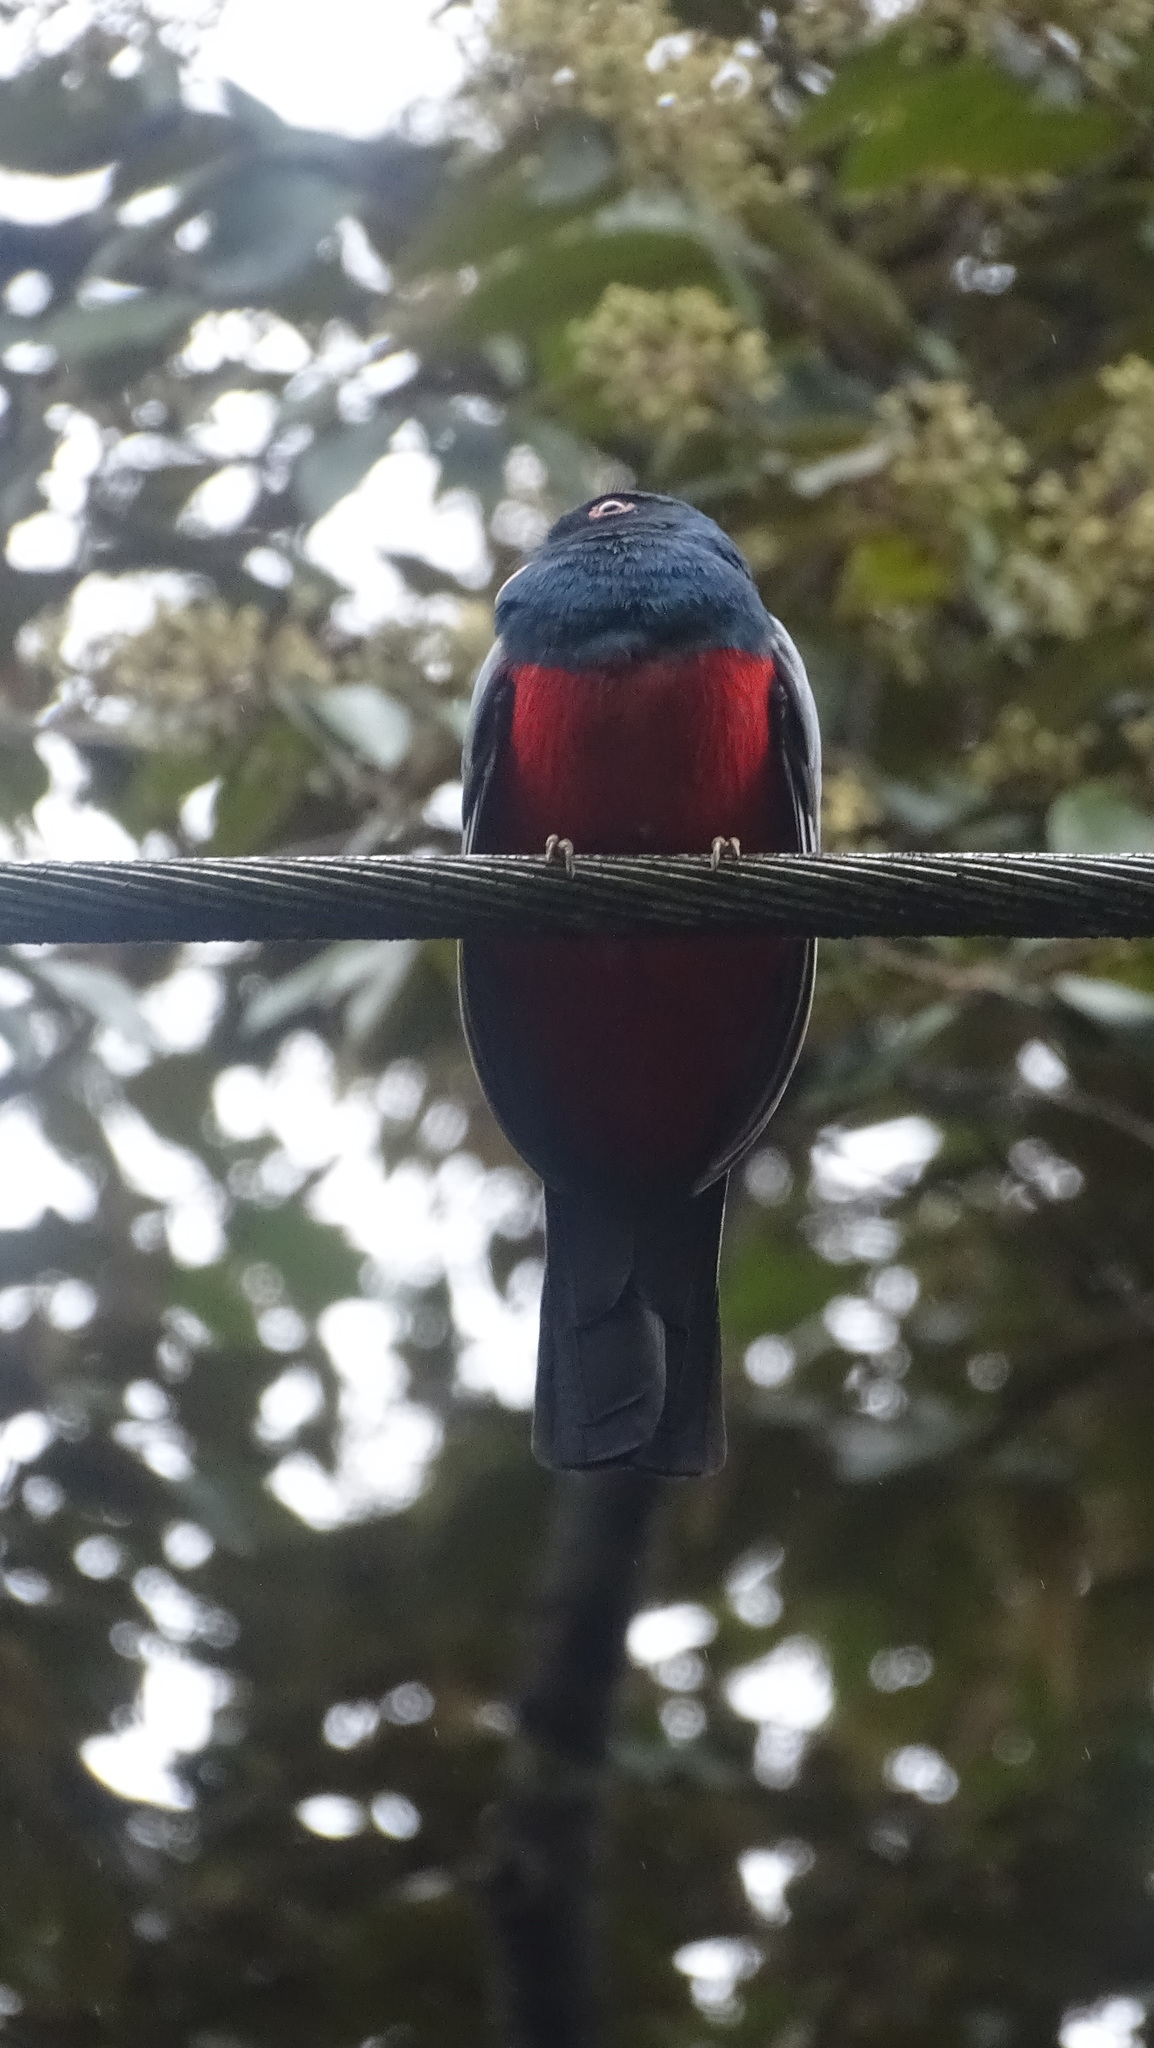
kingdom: Animalia
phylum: Chordata
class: Aves
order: Trogoniformes
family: Trogonidae
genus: Trogon
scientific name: Trogon massena
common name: Slaty-tailed trogon
